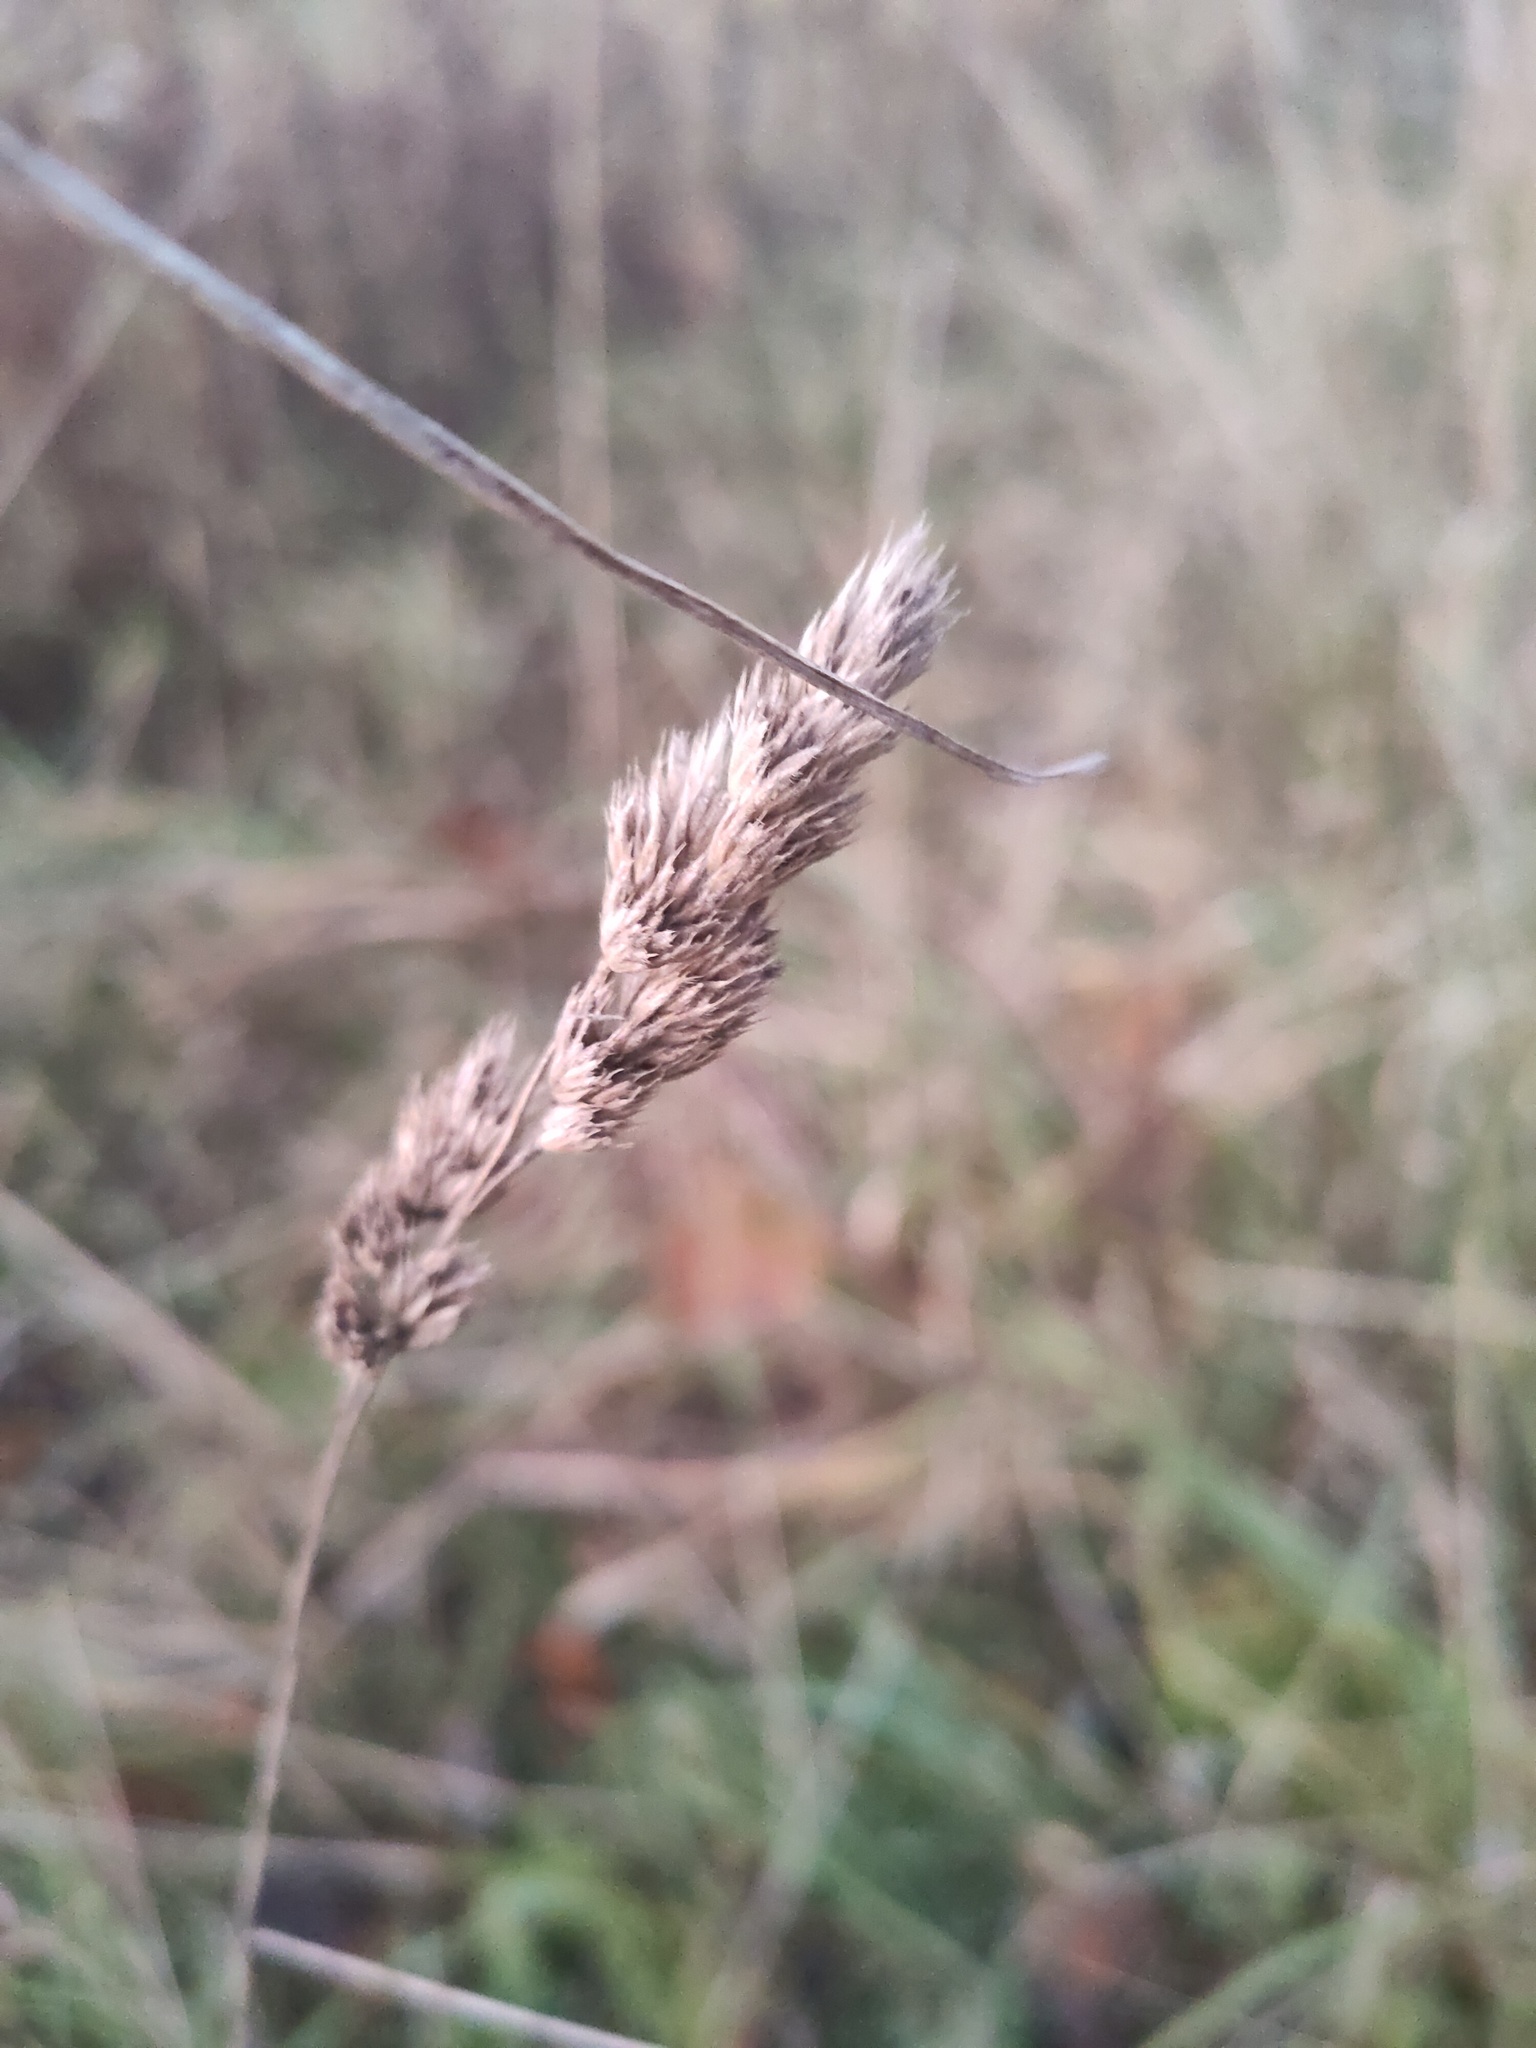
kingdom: Plantae
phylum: Tracheophyta
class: Liliopsida
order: Poales
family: Poaceae
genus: Dactylis
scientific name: Dactylis glomerata
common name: Orchardgrass
